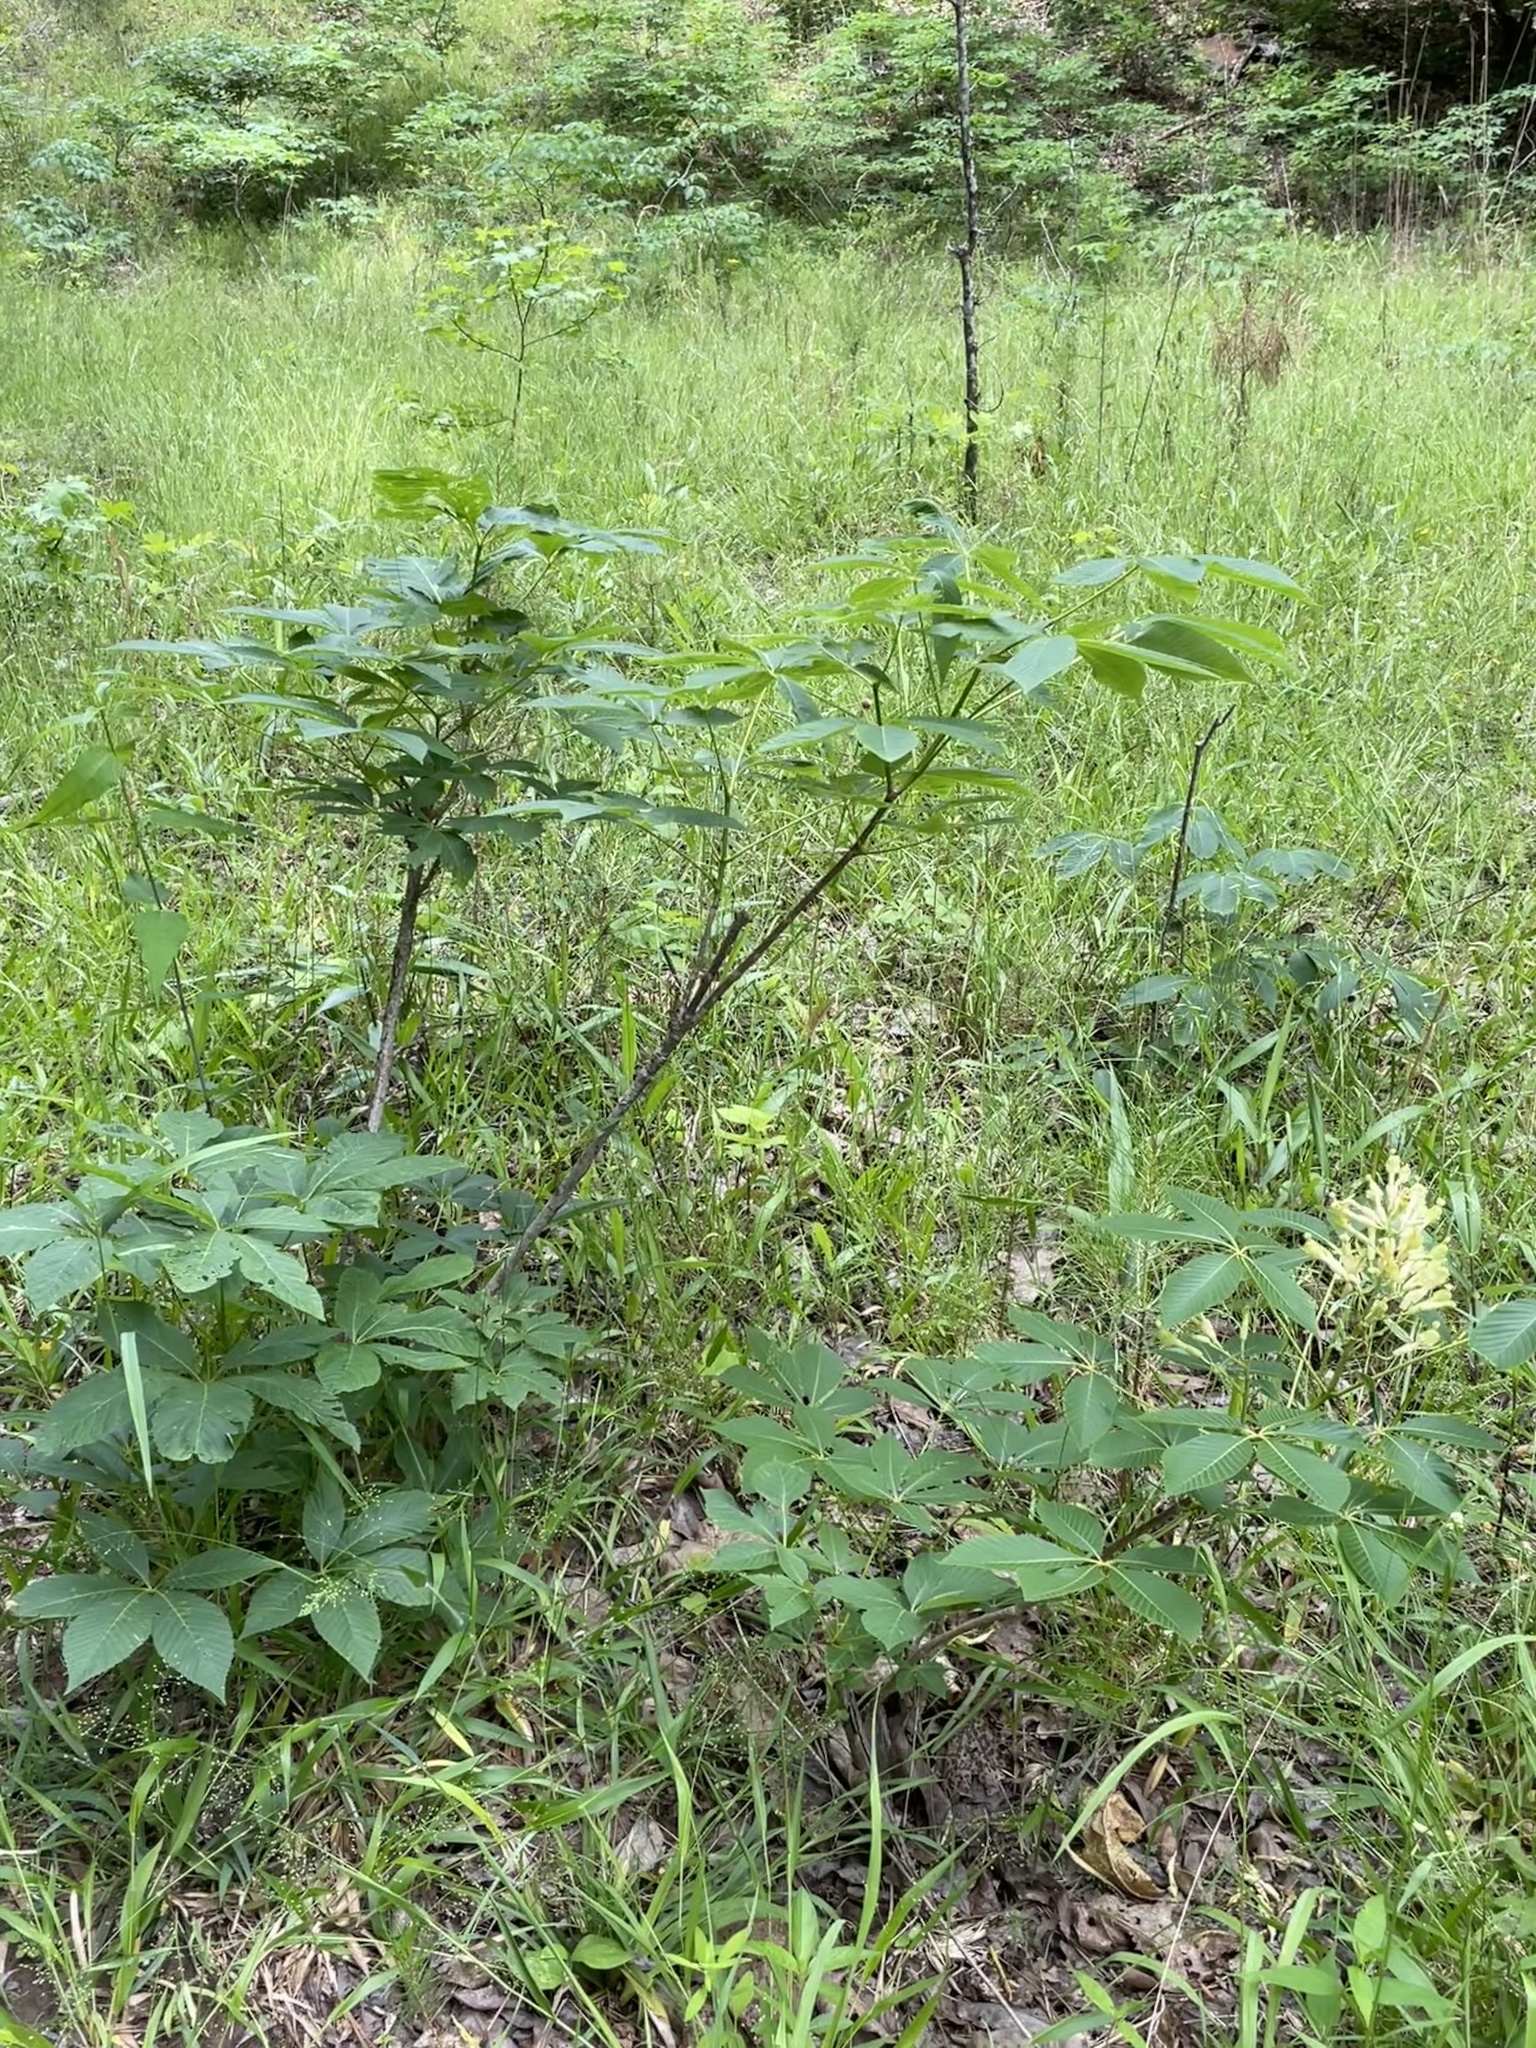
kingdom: Plantae
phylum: Tracheophyta
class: Magnoliopsida
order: Sapindales
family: Sapindaceae
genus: Aesculus
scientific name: Aesculus sylvatica
